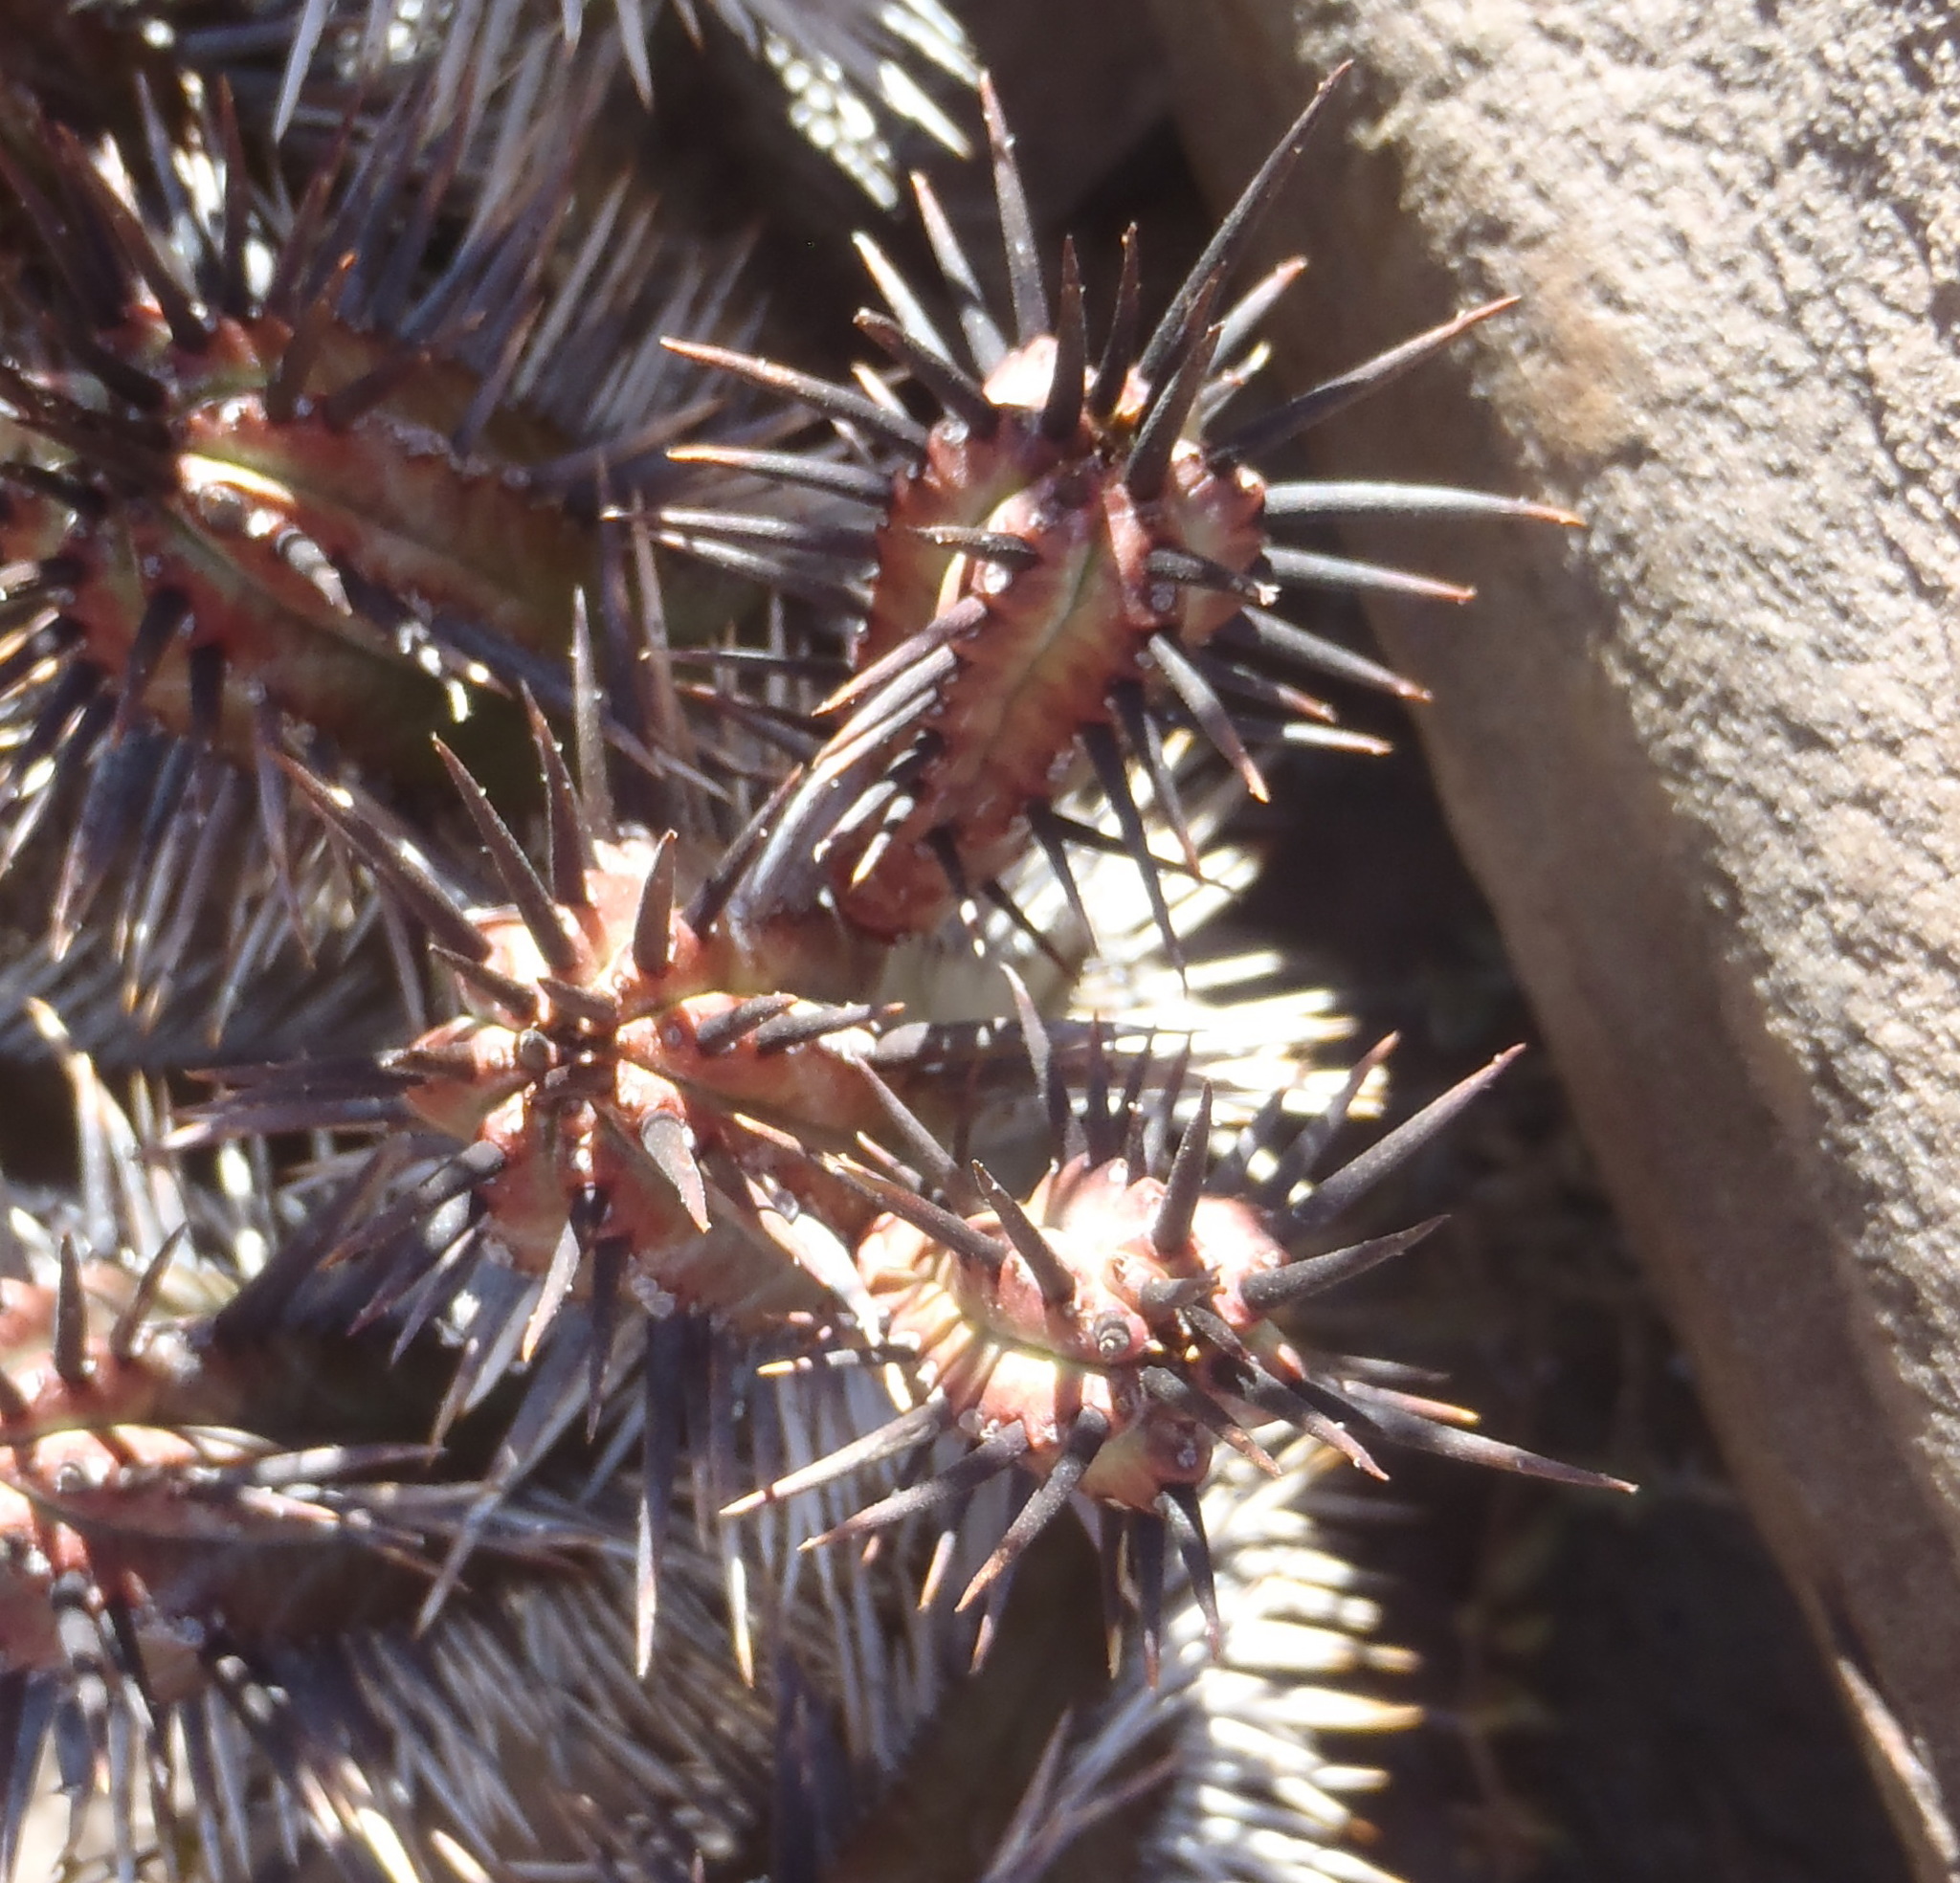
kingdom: Plantae
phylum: Tracheophyta
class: Magnoliopsida
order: Malpighiales
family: Euphorbiaceae
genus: Euphorbia
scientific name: Euphorbia heptagona
